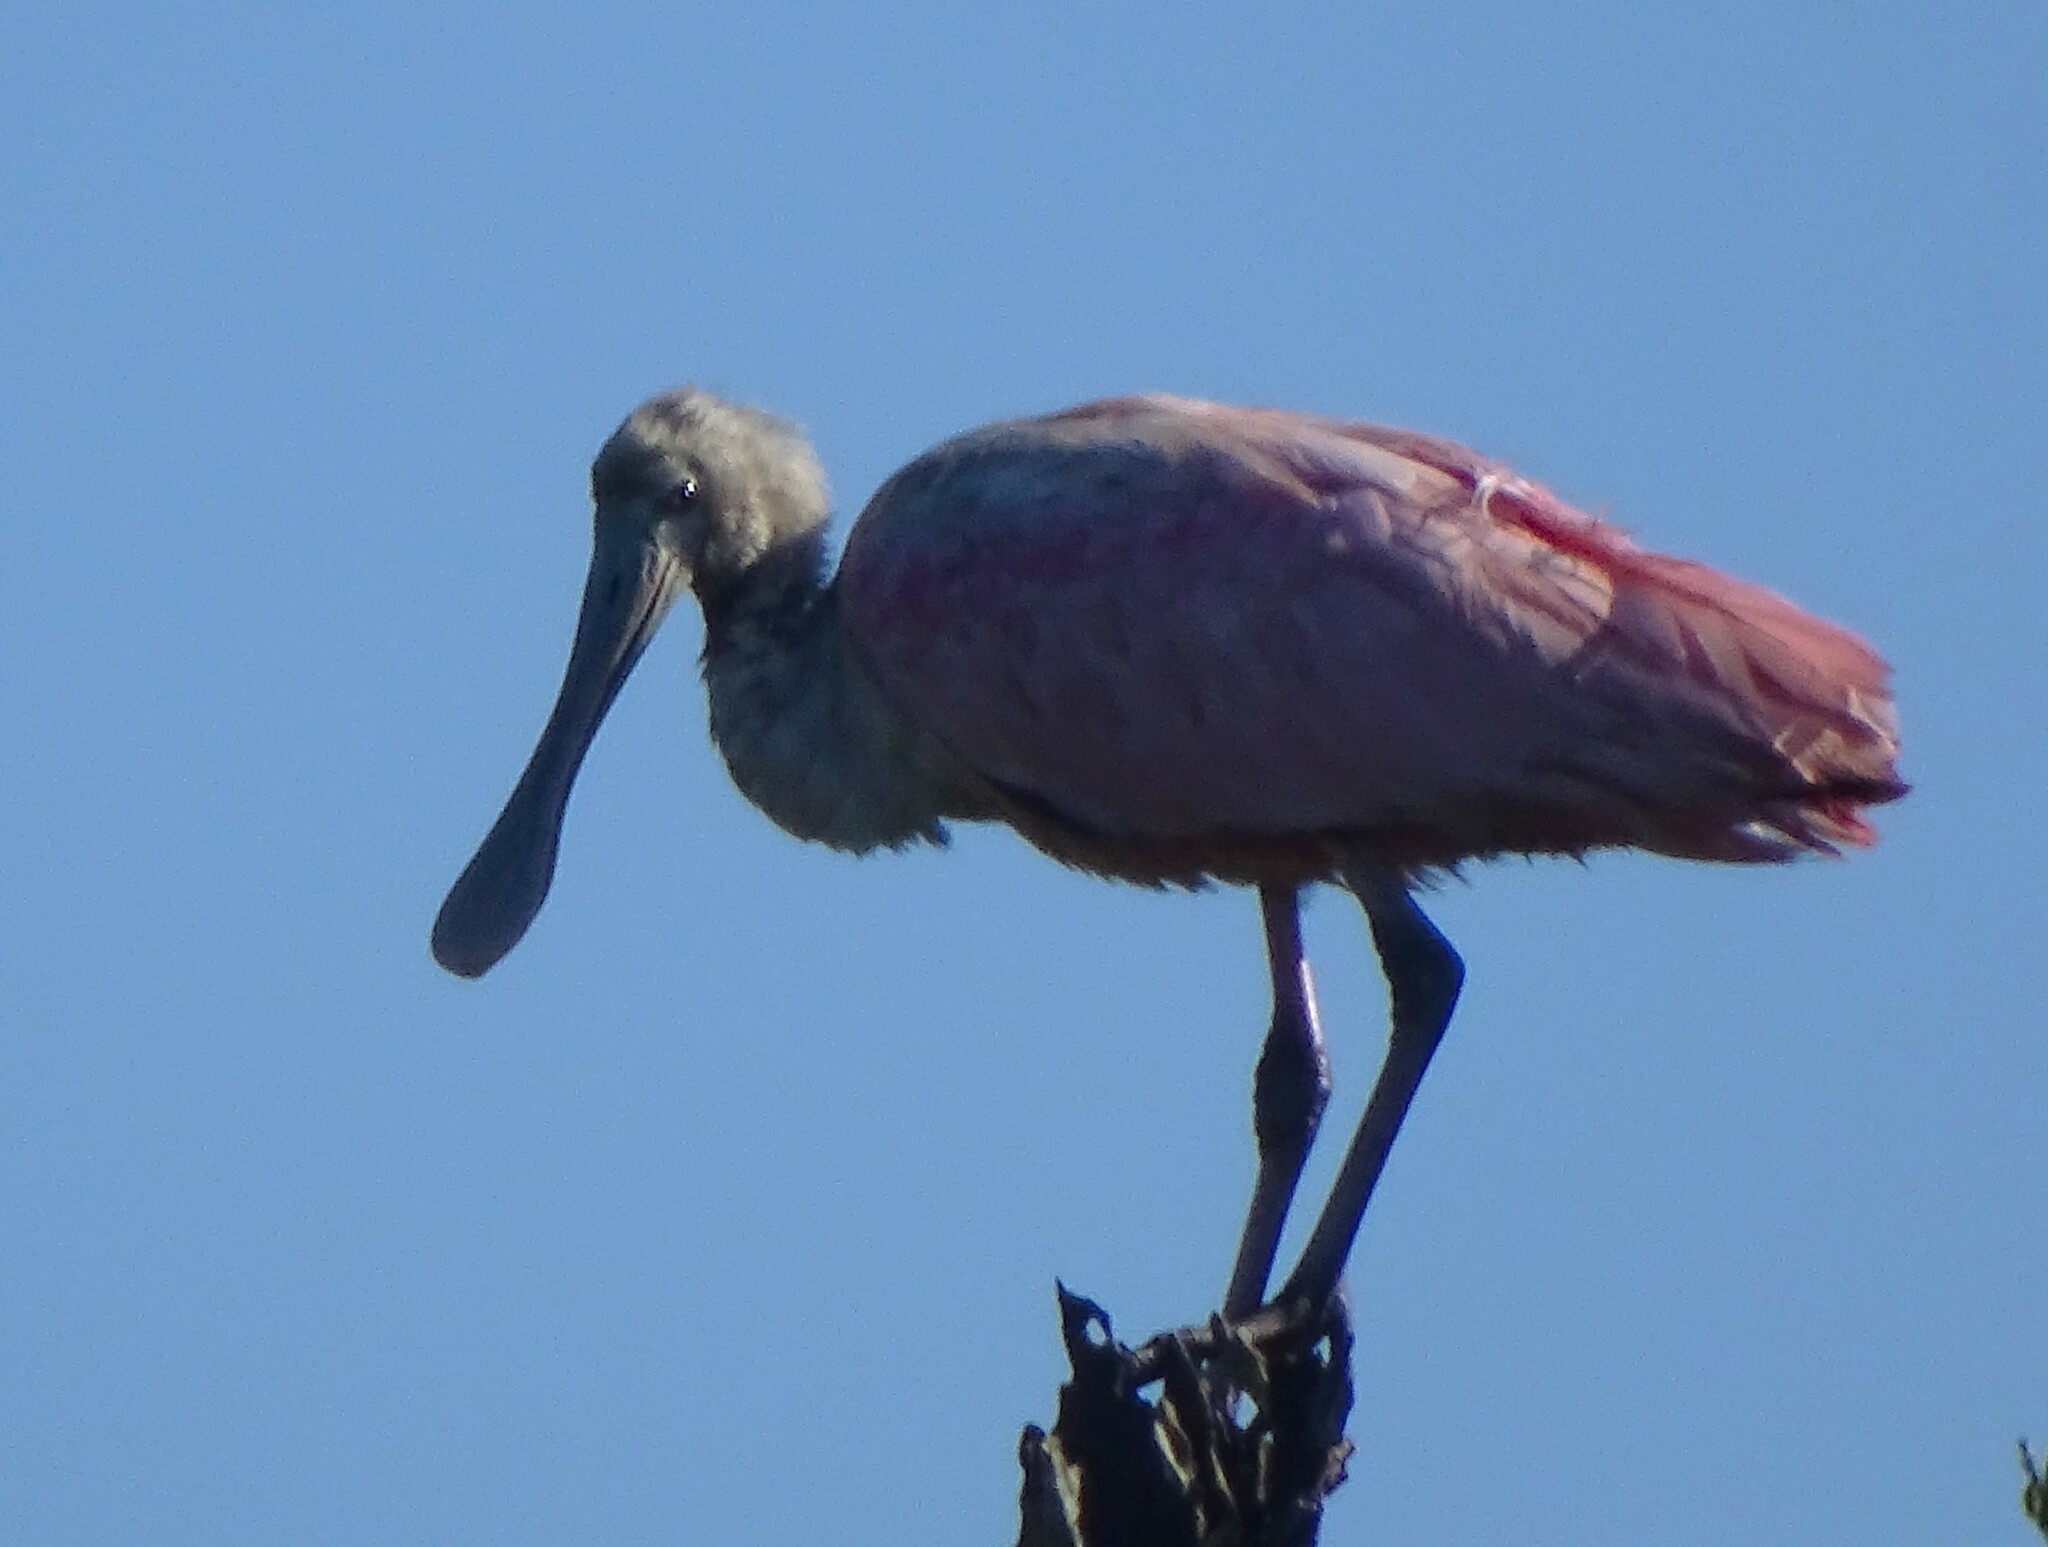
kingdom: Animalia
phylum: Chordata
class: Aves
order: Pelecaniformes
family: Threskiornithidae
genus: Platalea
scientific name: Platalea ajaja
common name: Roseate spoonbill
